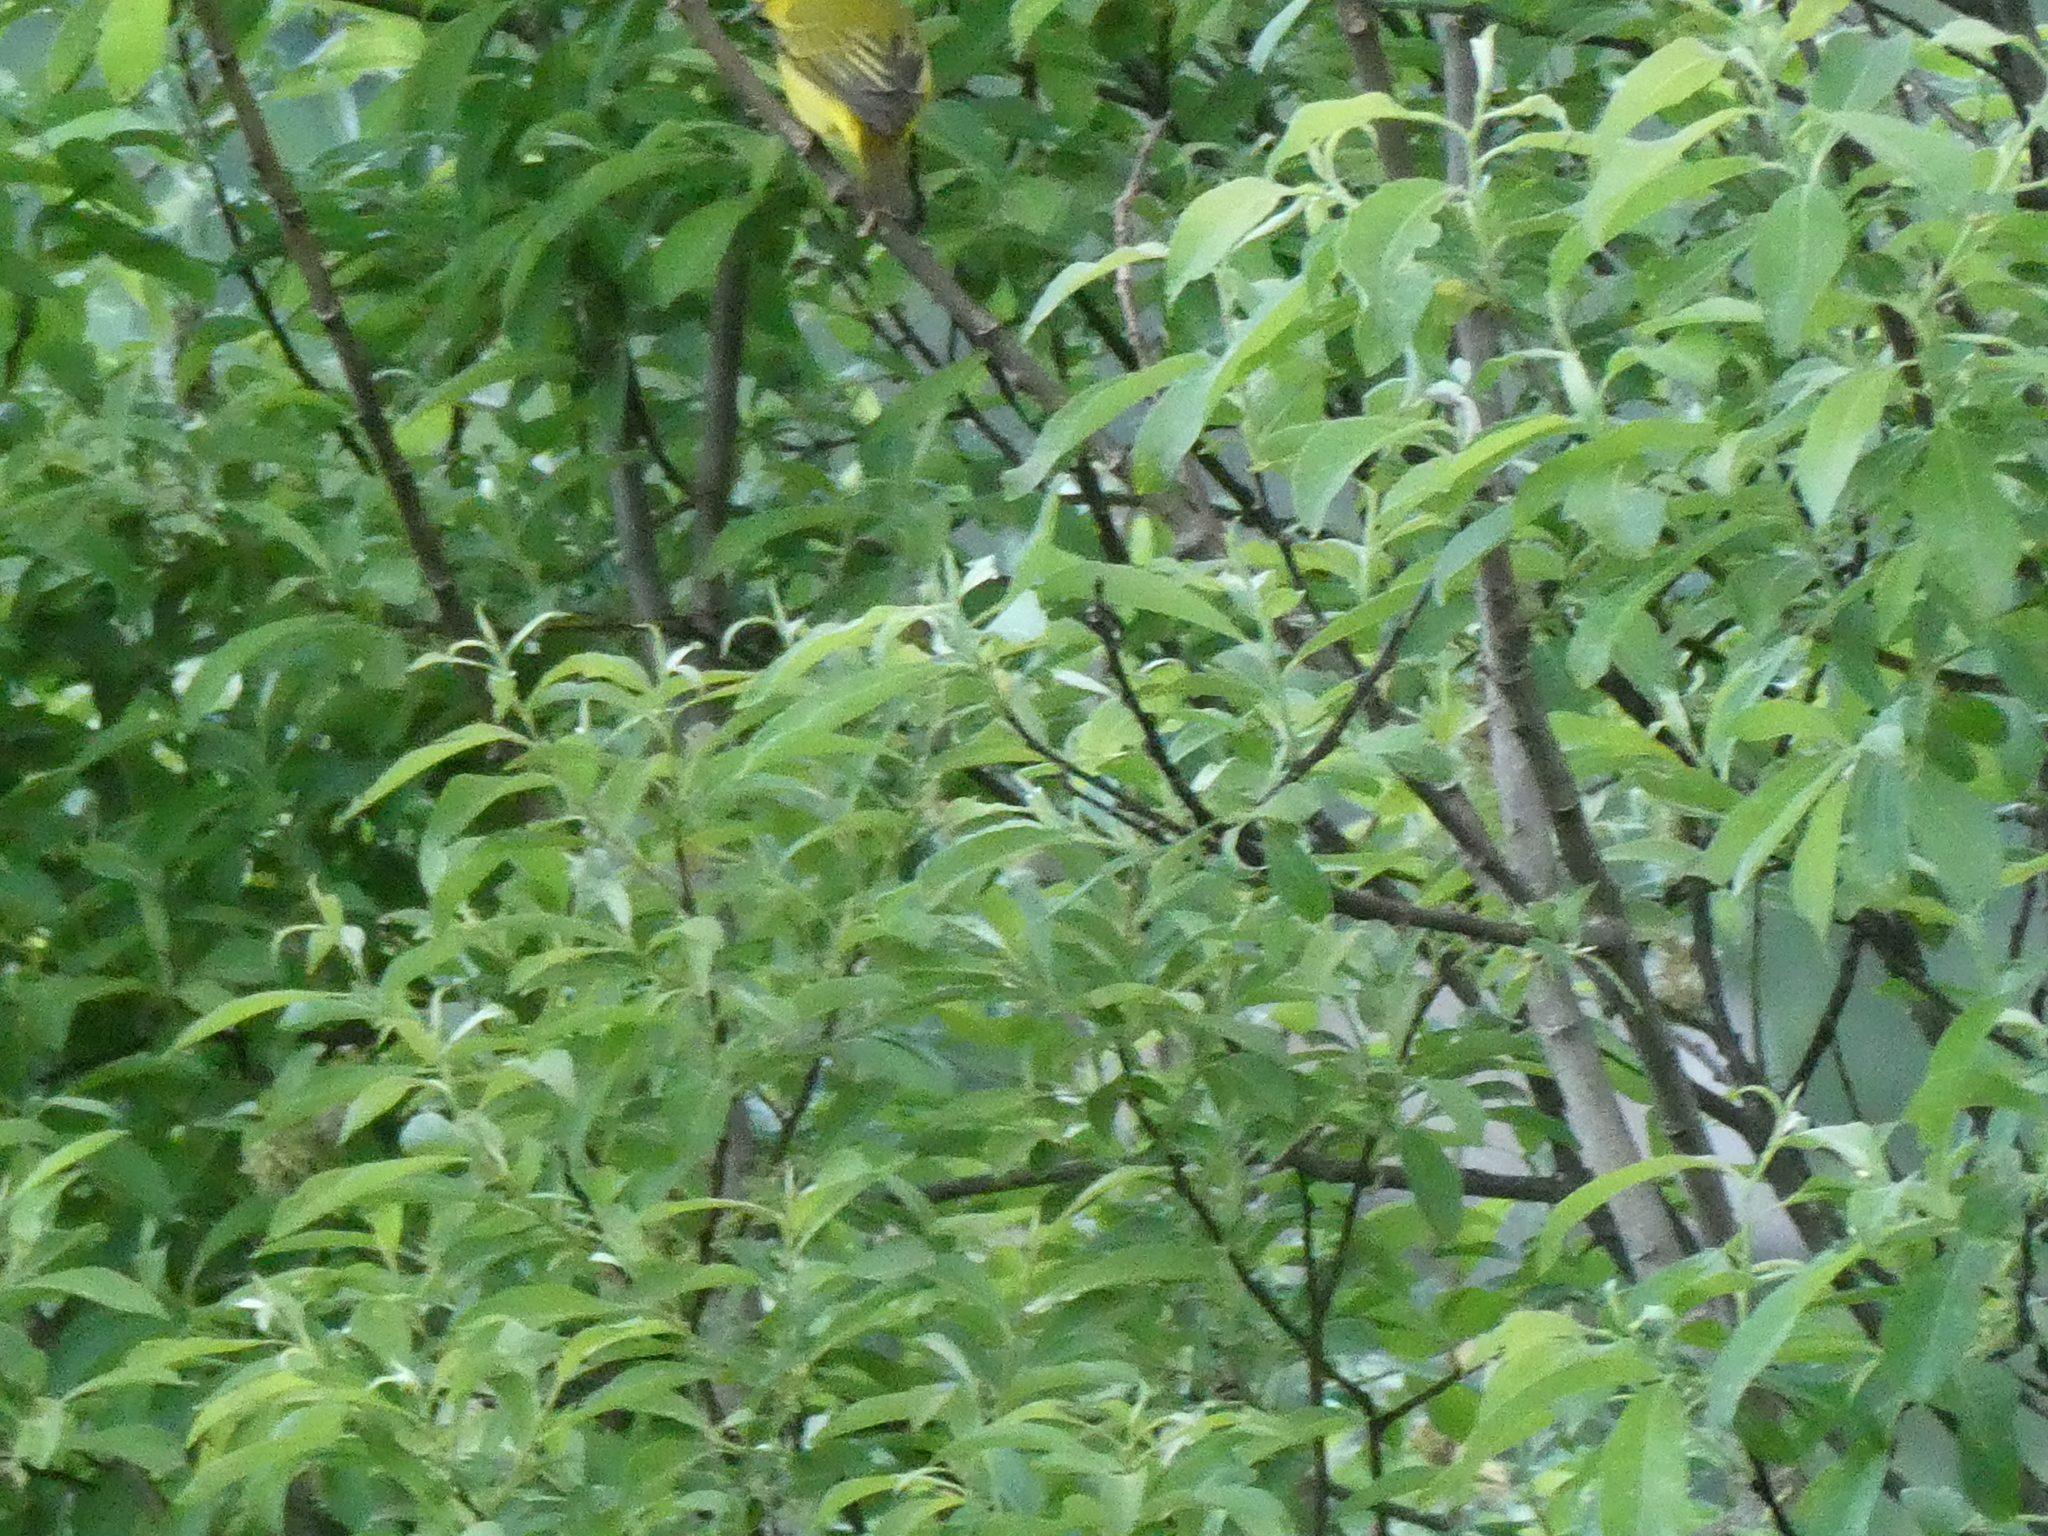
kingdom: Animalia
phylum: Chordata
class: Aves
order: Passeriformes
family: Parulidae
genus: Setophaga
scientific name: Setophaga petechia
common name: Yellow warbler
